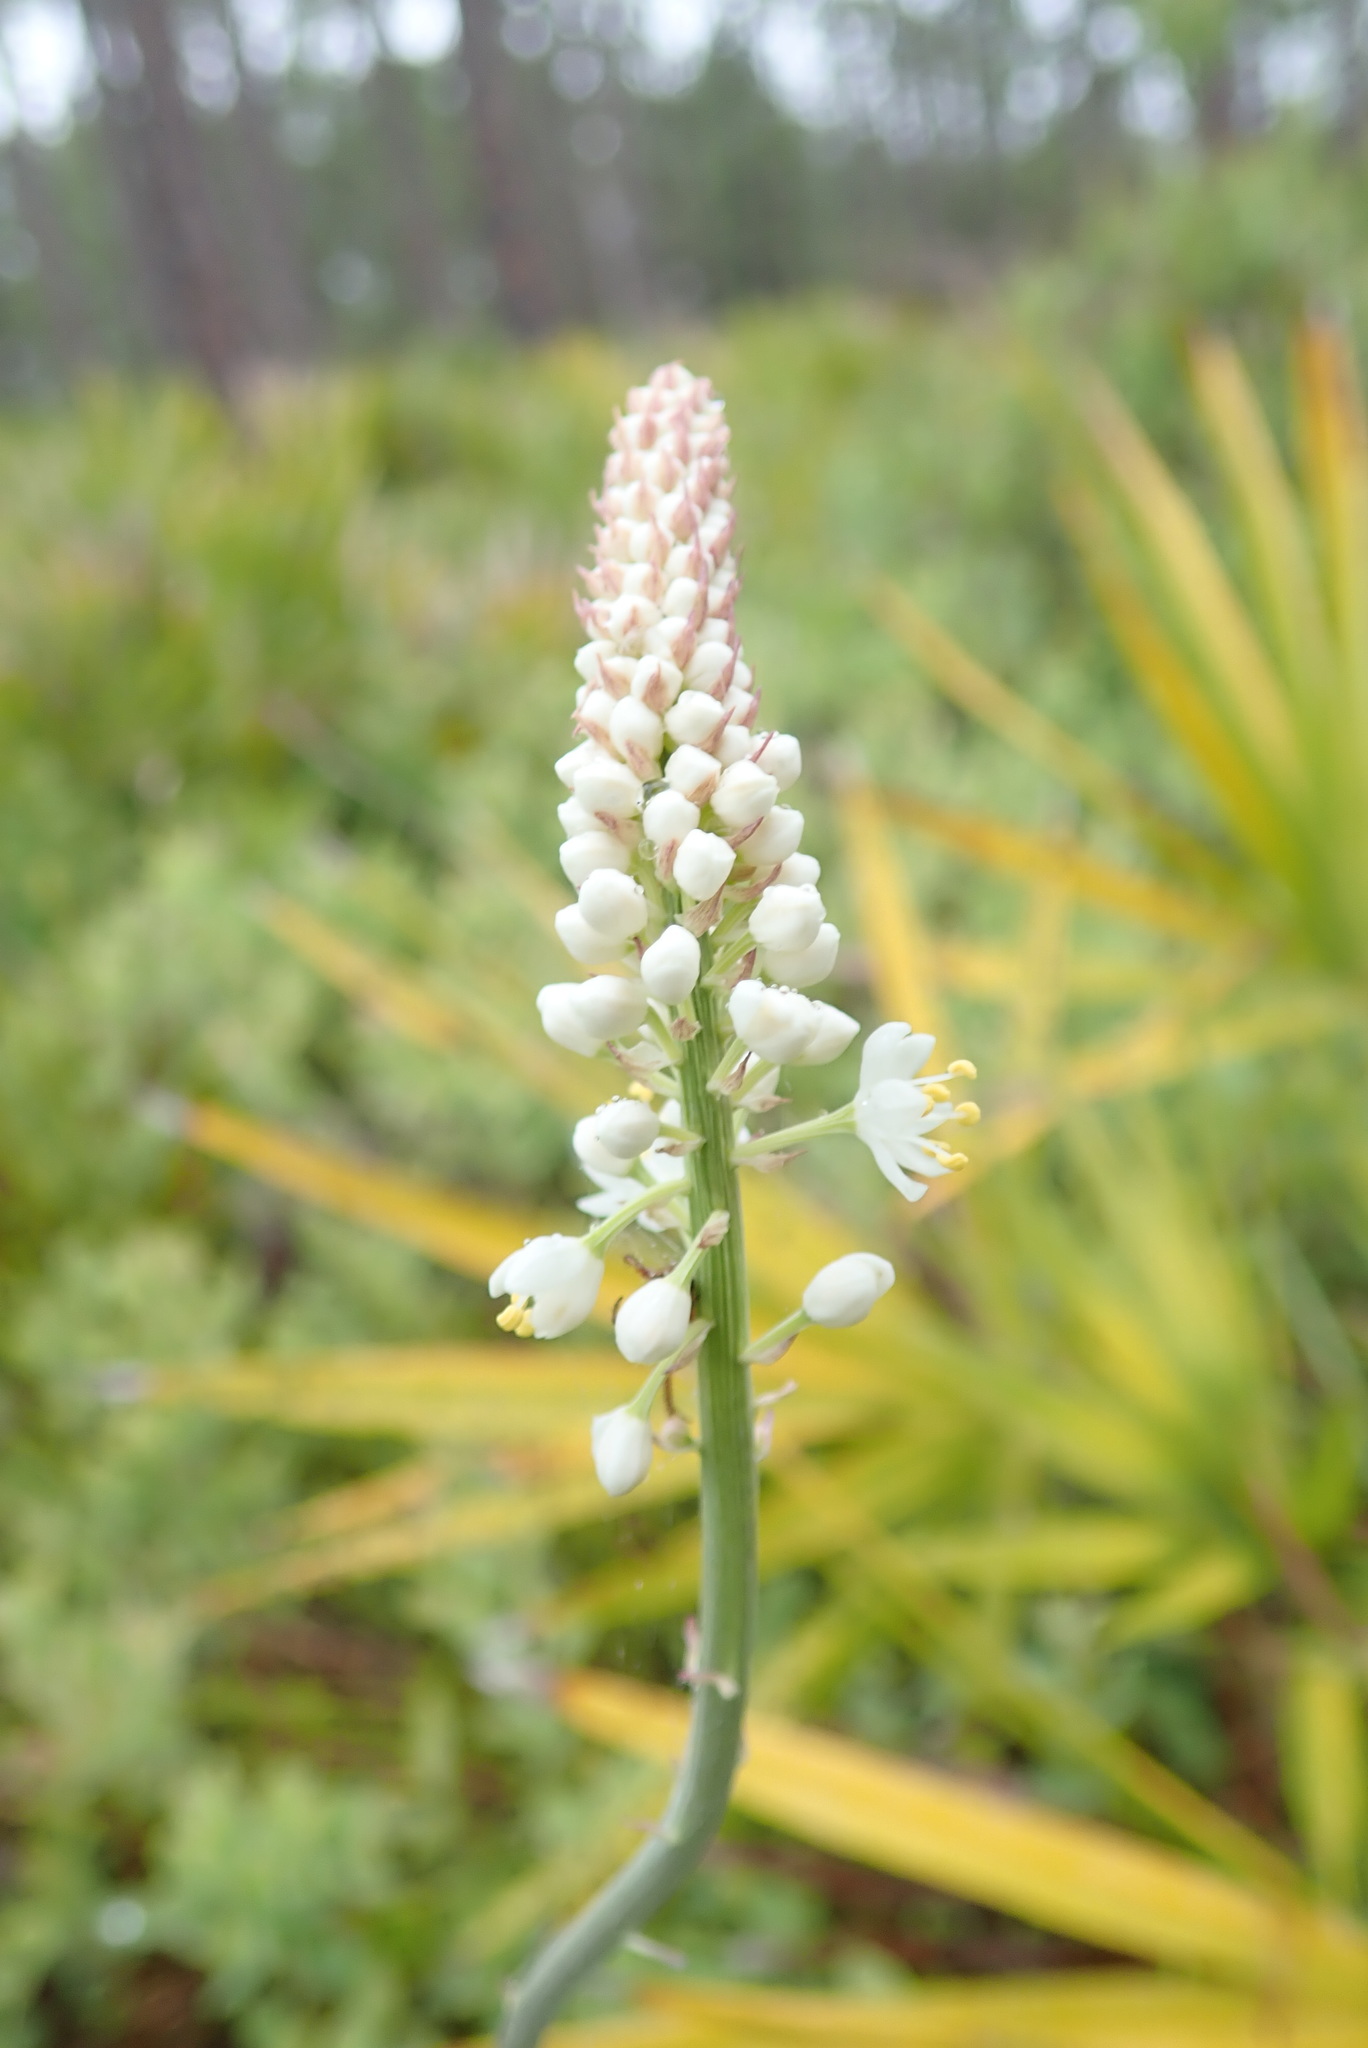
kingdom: Plantae
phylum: Tracheophyta
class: Liliopsida
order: Liliales
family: Melanthiaceae
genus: Stenanthium
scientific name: Stenanthium densum
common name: Crow-poison
